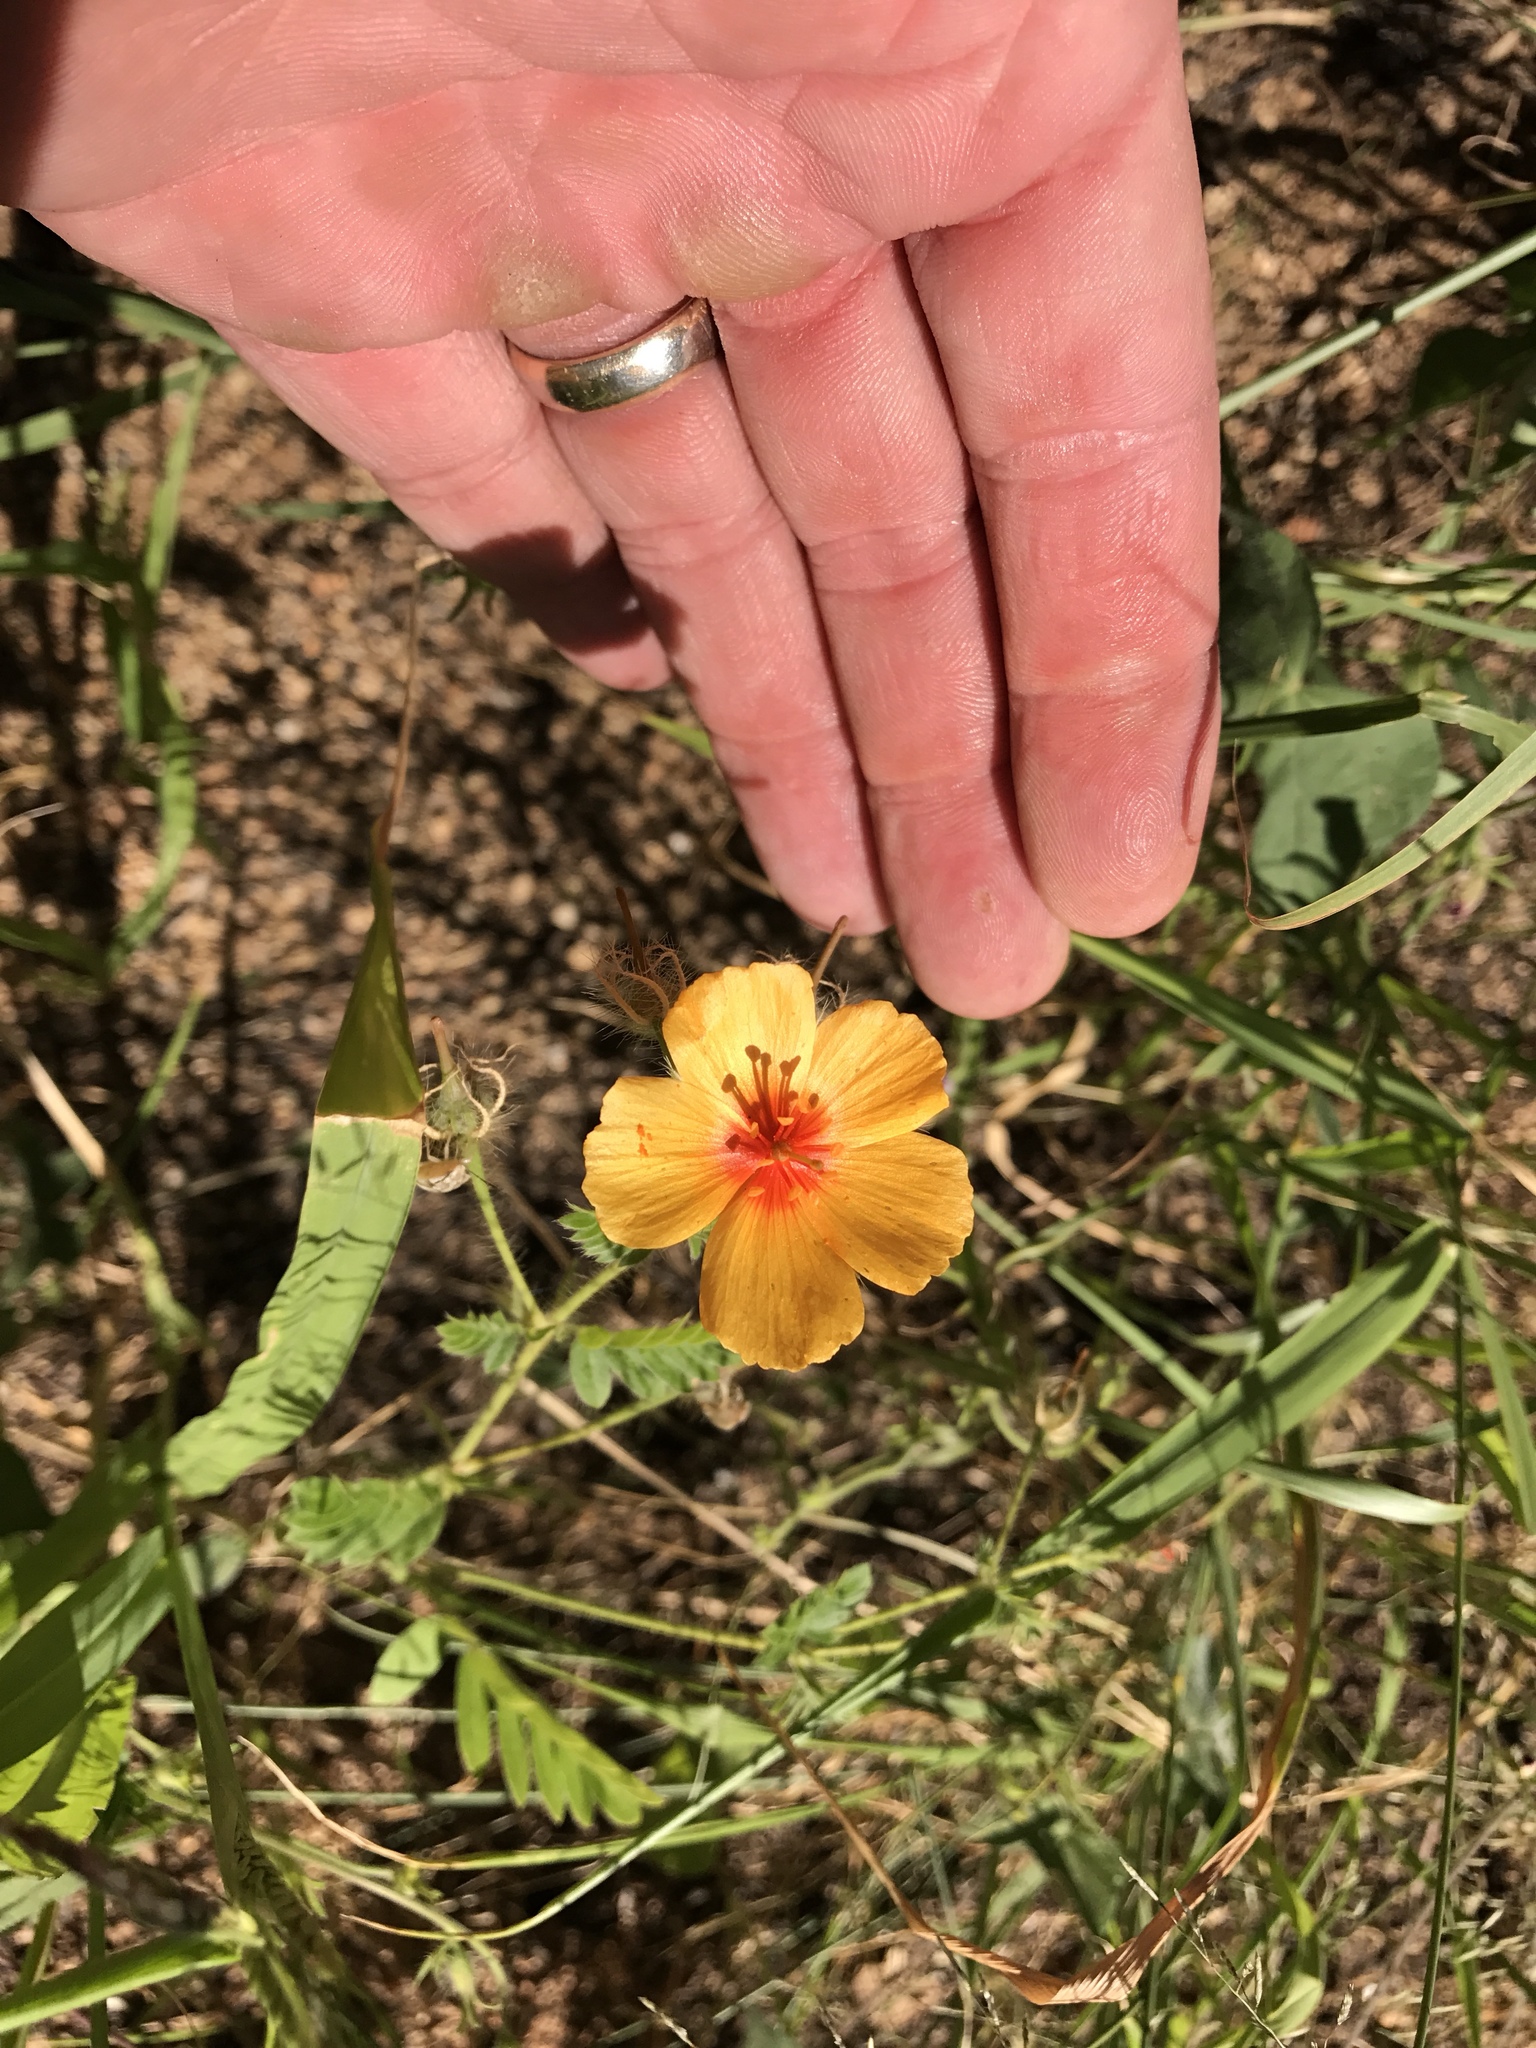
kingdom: Plantae
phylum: Tracheophyta
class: Magnoliopsida
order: Zygophyllales
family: Zygophyllaceae
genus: Kallstroemia
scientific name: Kallstroemia grandiflora
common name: Arizona-poppy
